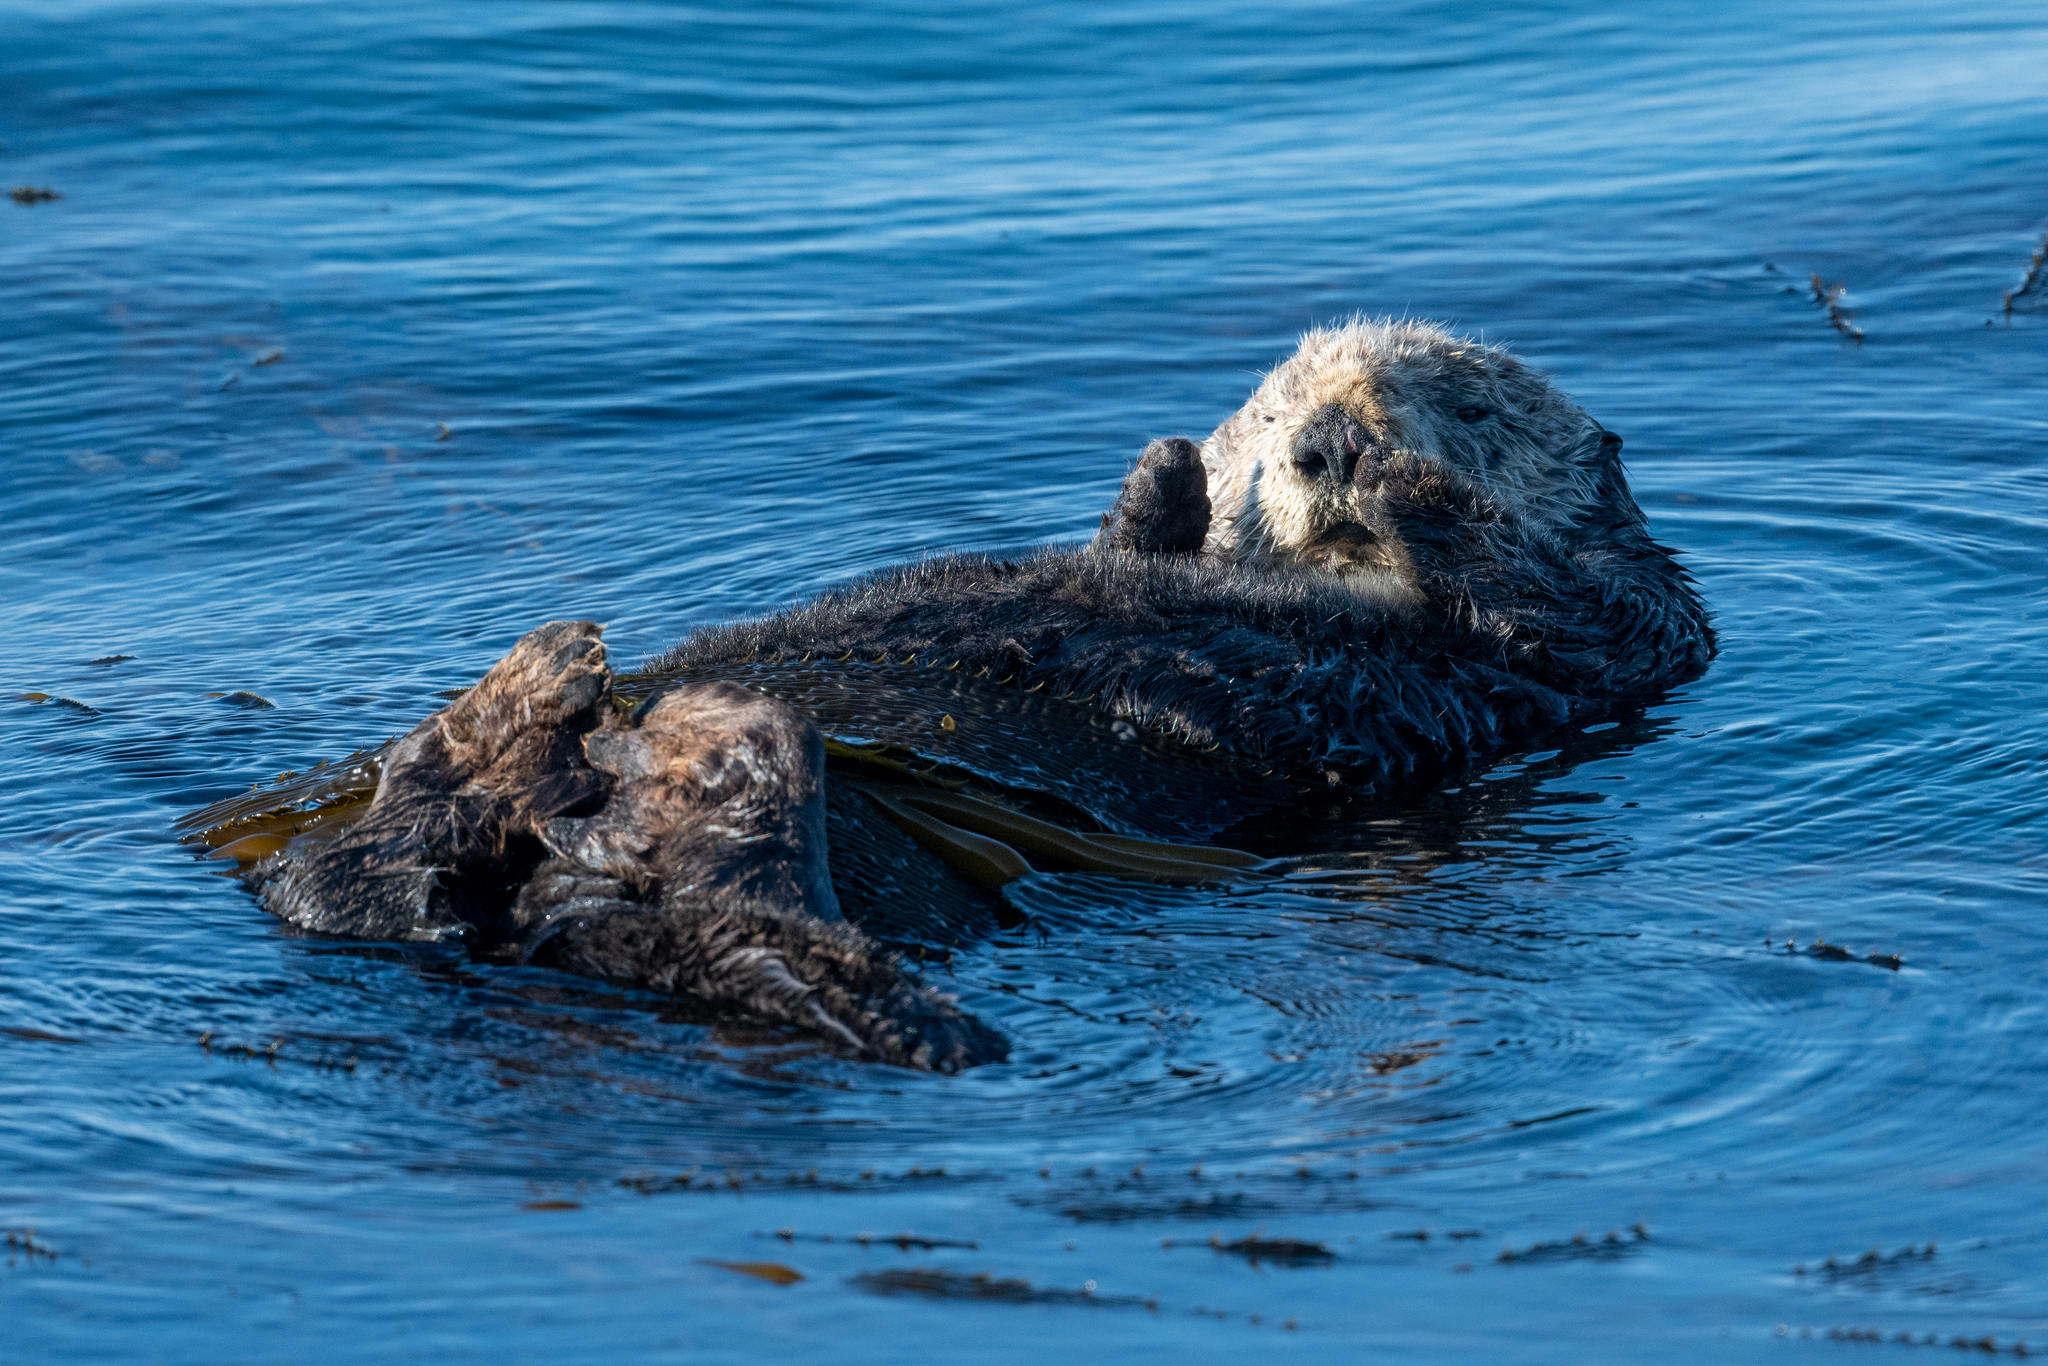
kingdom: Animalia
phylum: Chordata
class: Mammalia
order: Carnivora
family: Mustelidae
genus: Enhydra
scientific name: Enhydra lutris
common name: Sea otter
